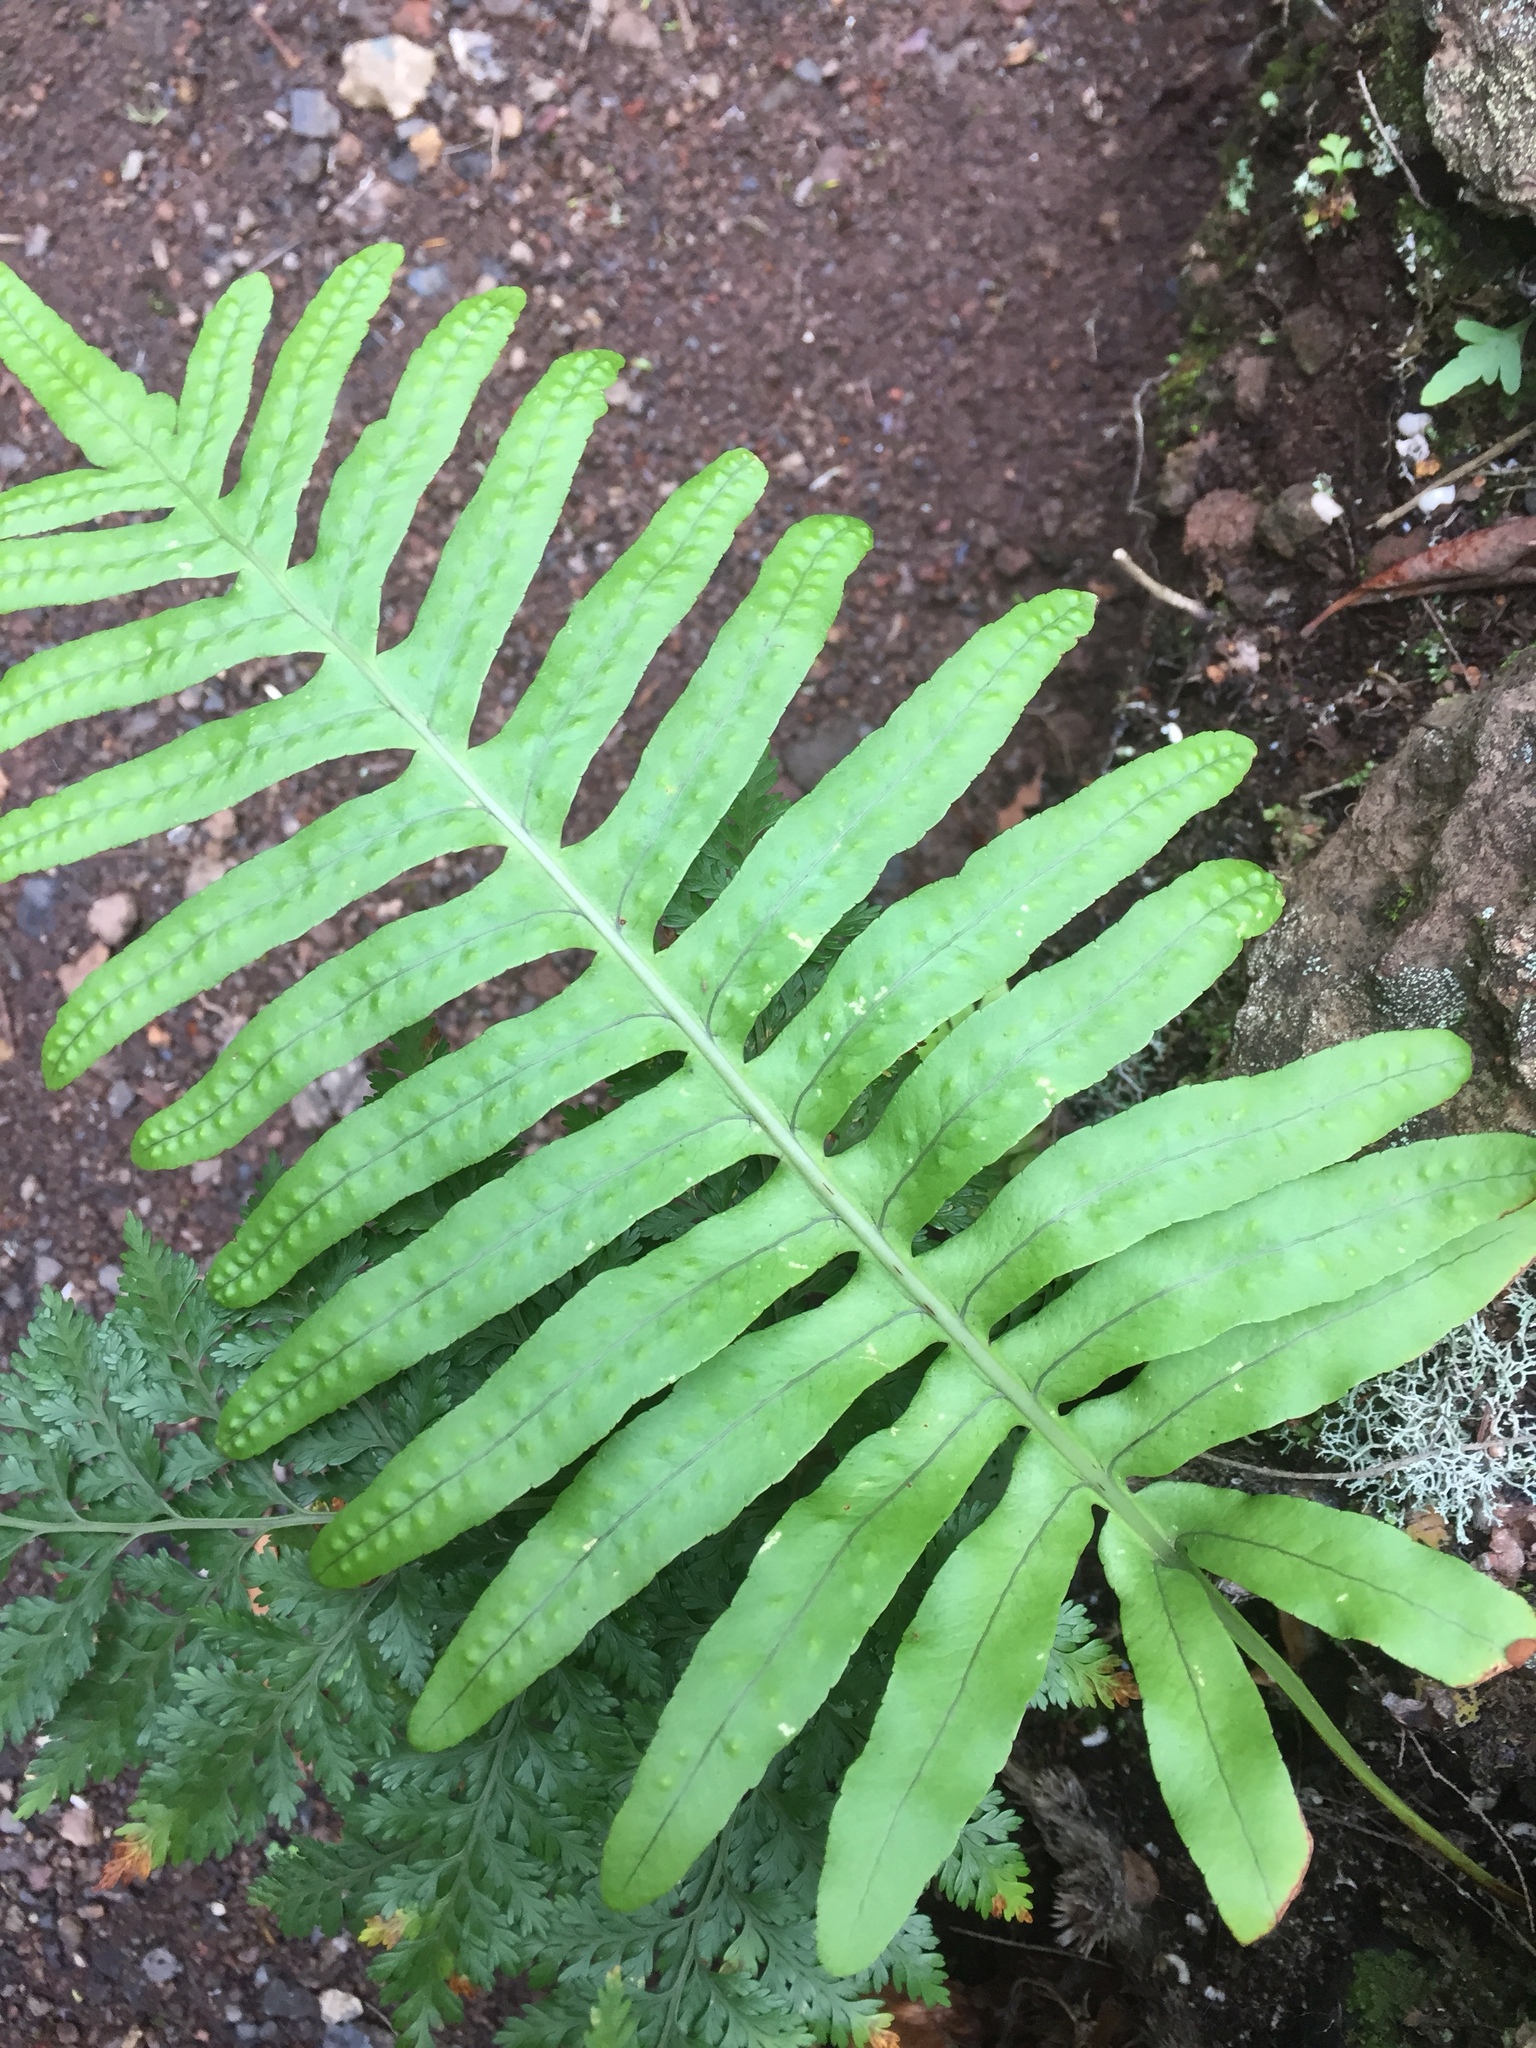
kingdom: Plantae
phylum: Tracheophyta
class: Polypodiopsida
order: Polypodiales
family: Polypodiaceae
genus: Polypodium
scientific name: Polypodium macaronesicum
